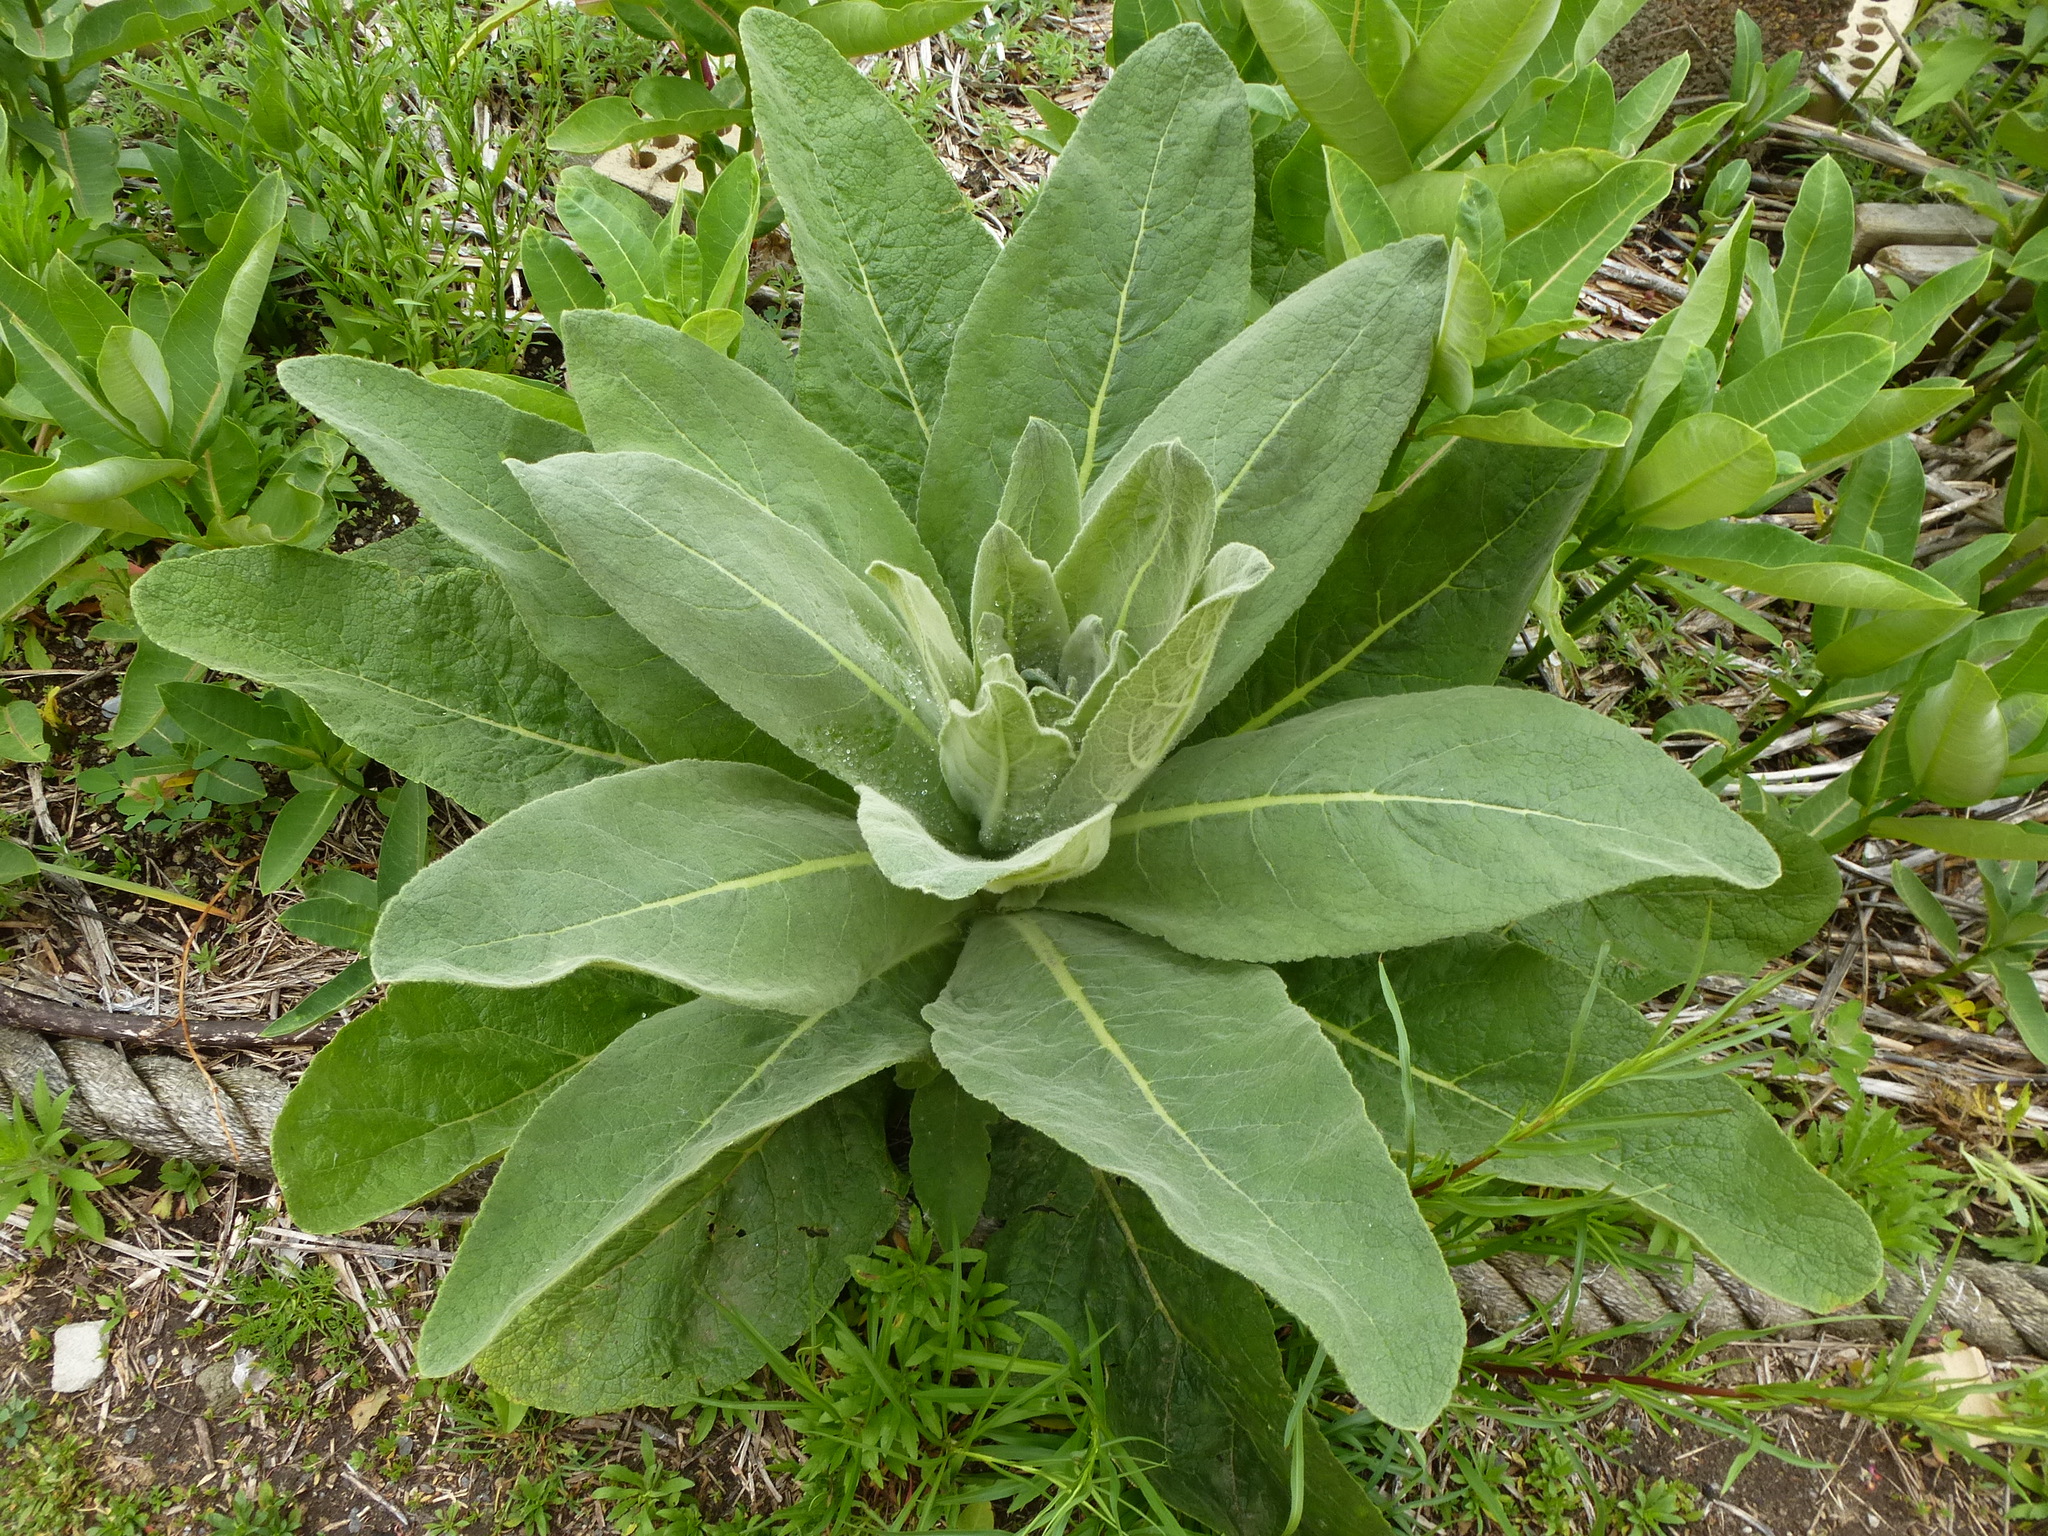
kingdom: Plantae
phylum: Tracheophyta
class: Magnoliopsida
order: Lamiales
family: Scrophulariaceae
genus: Verbascum
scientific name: Verbascum thapsus
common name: Common mullein
